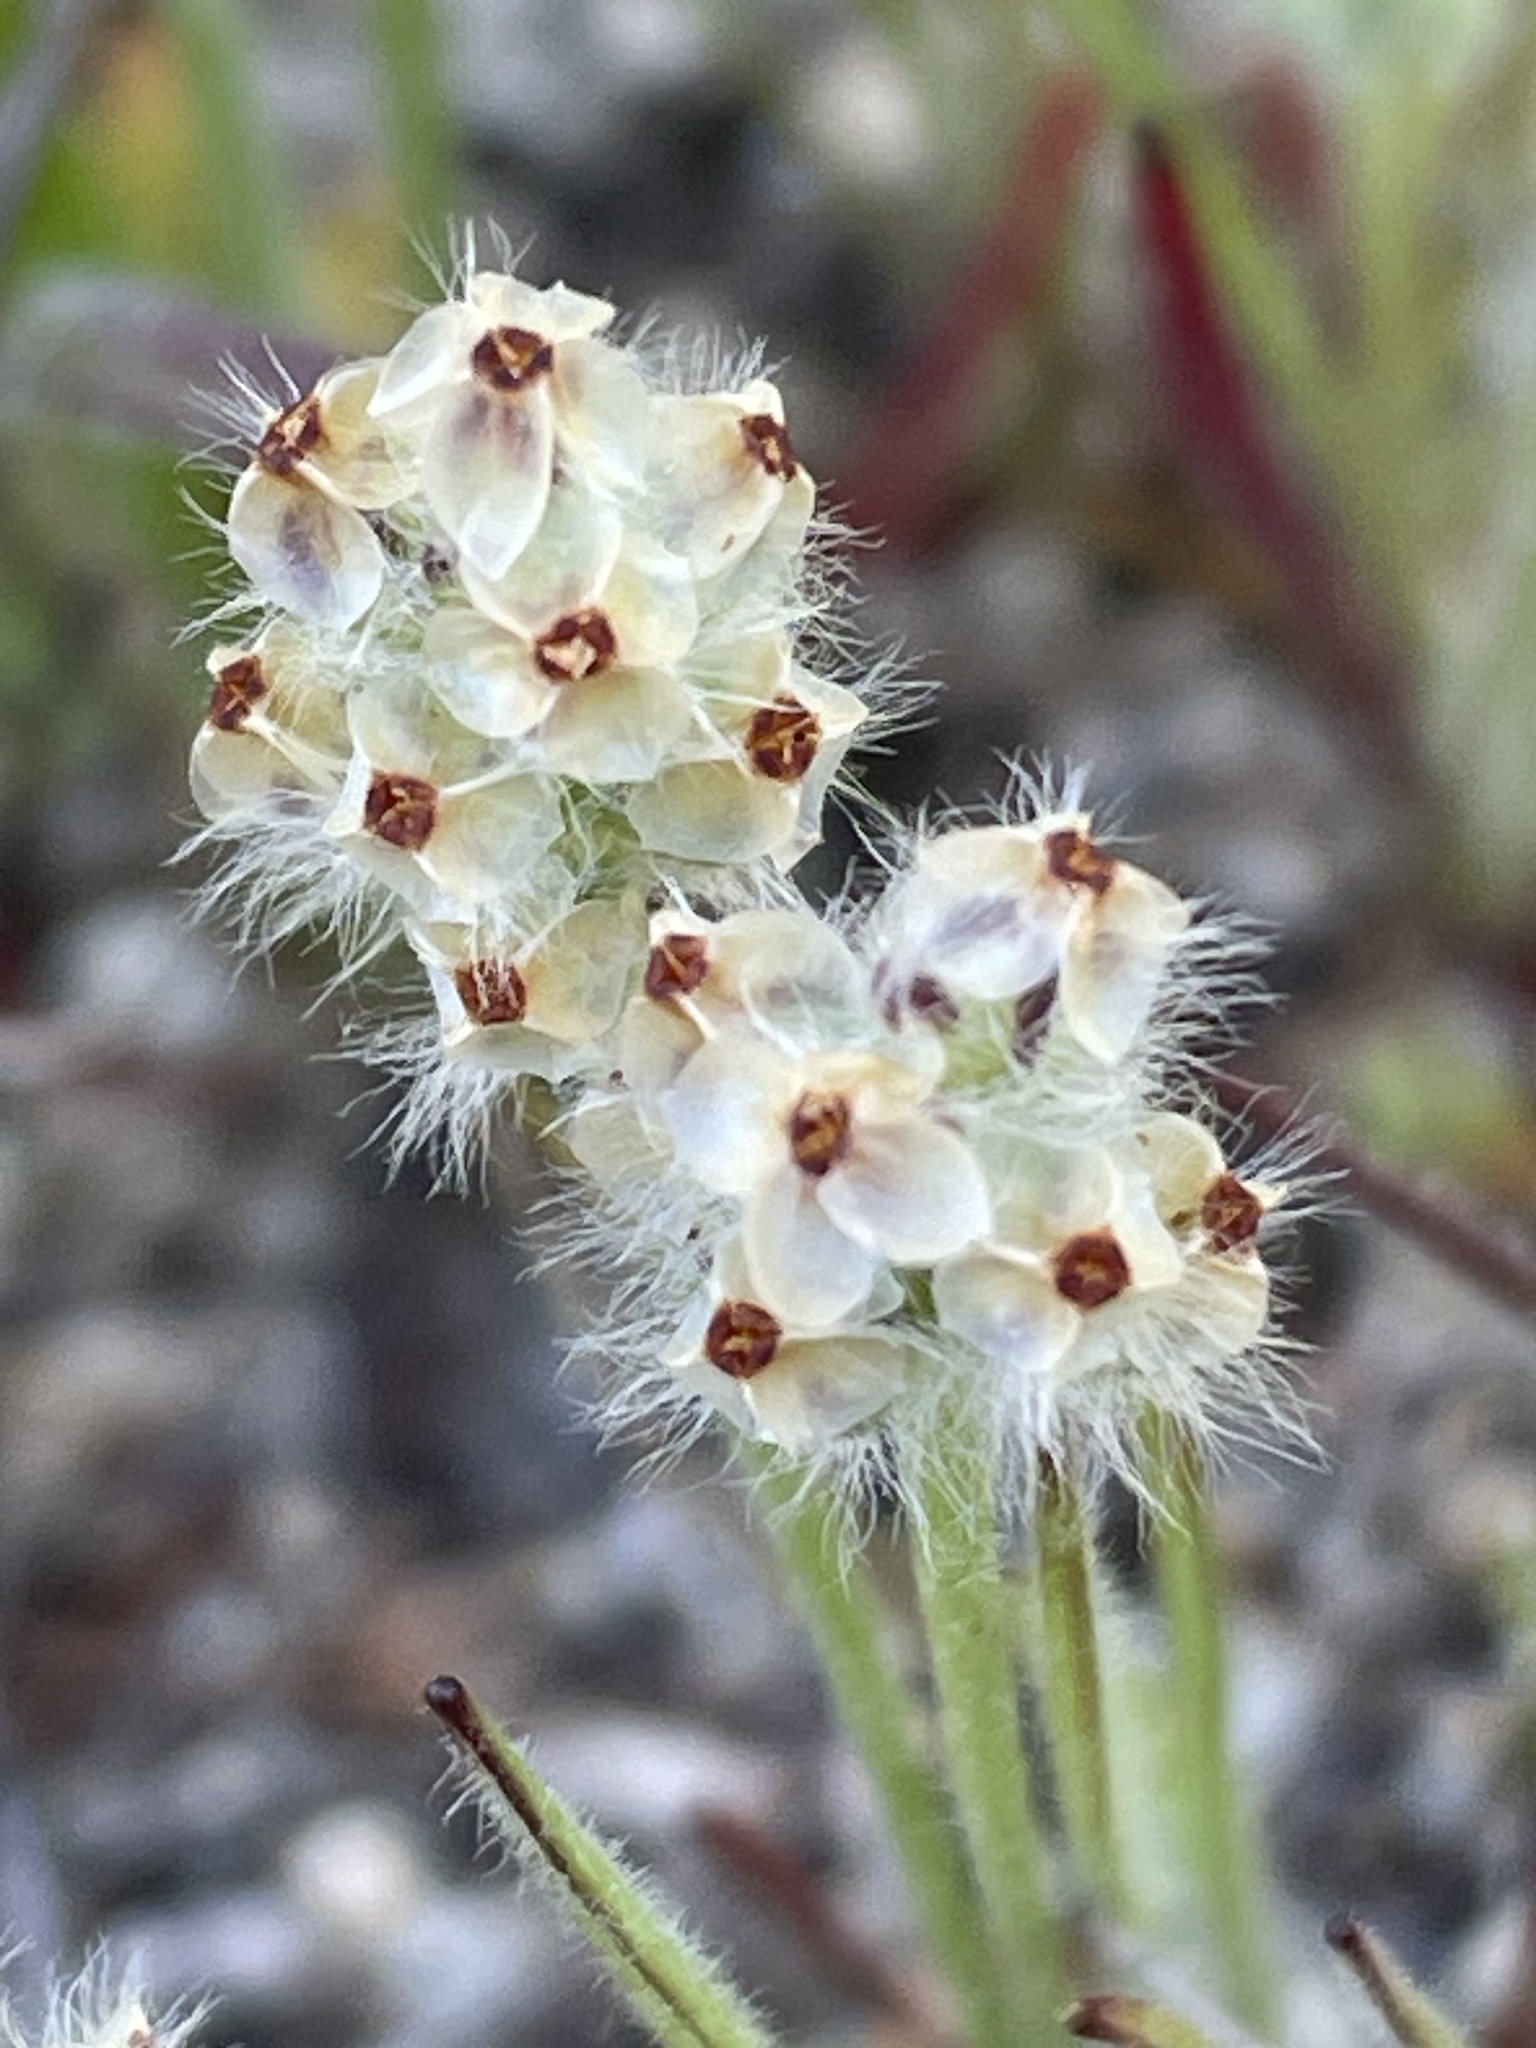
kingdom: Plantae
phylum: Tracheophyta
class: Magnoliopsida
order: Lamiales
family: Plantaginaceae
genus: Plantago
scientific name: Plantago erecta
